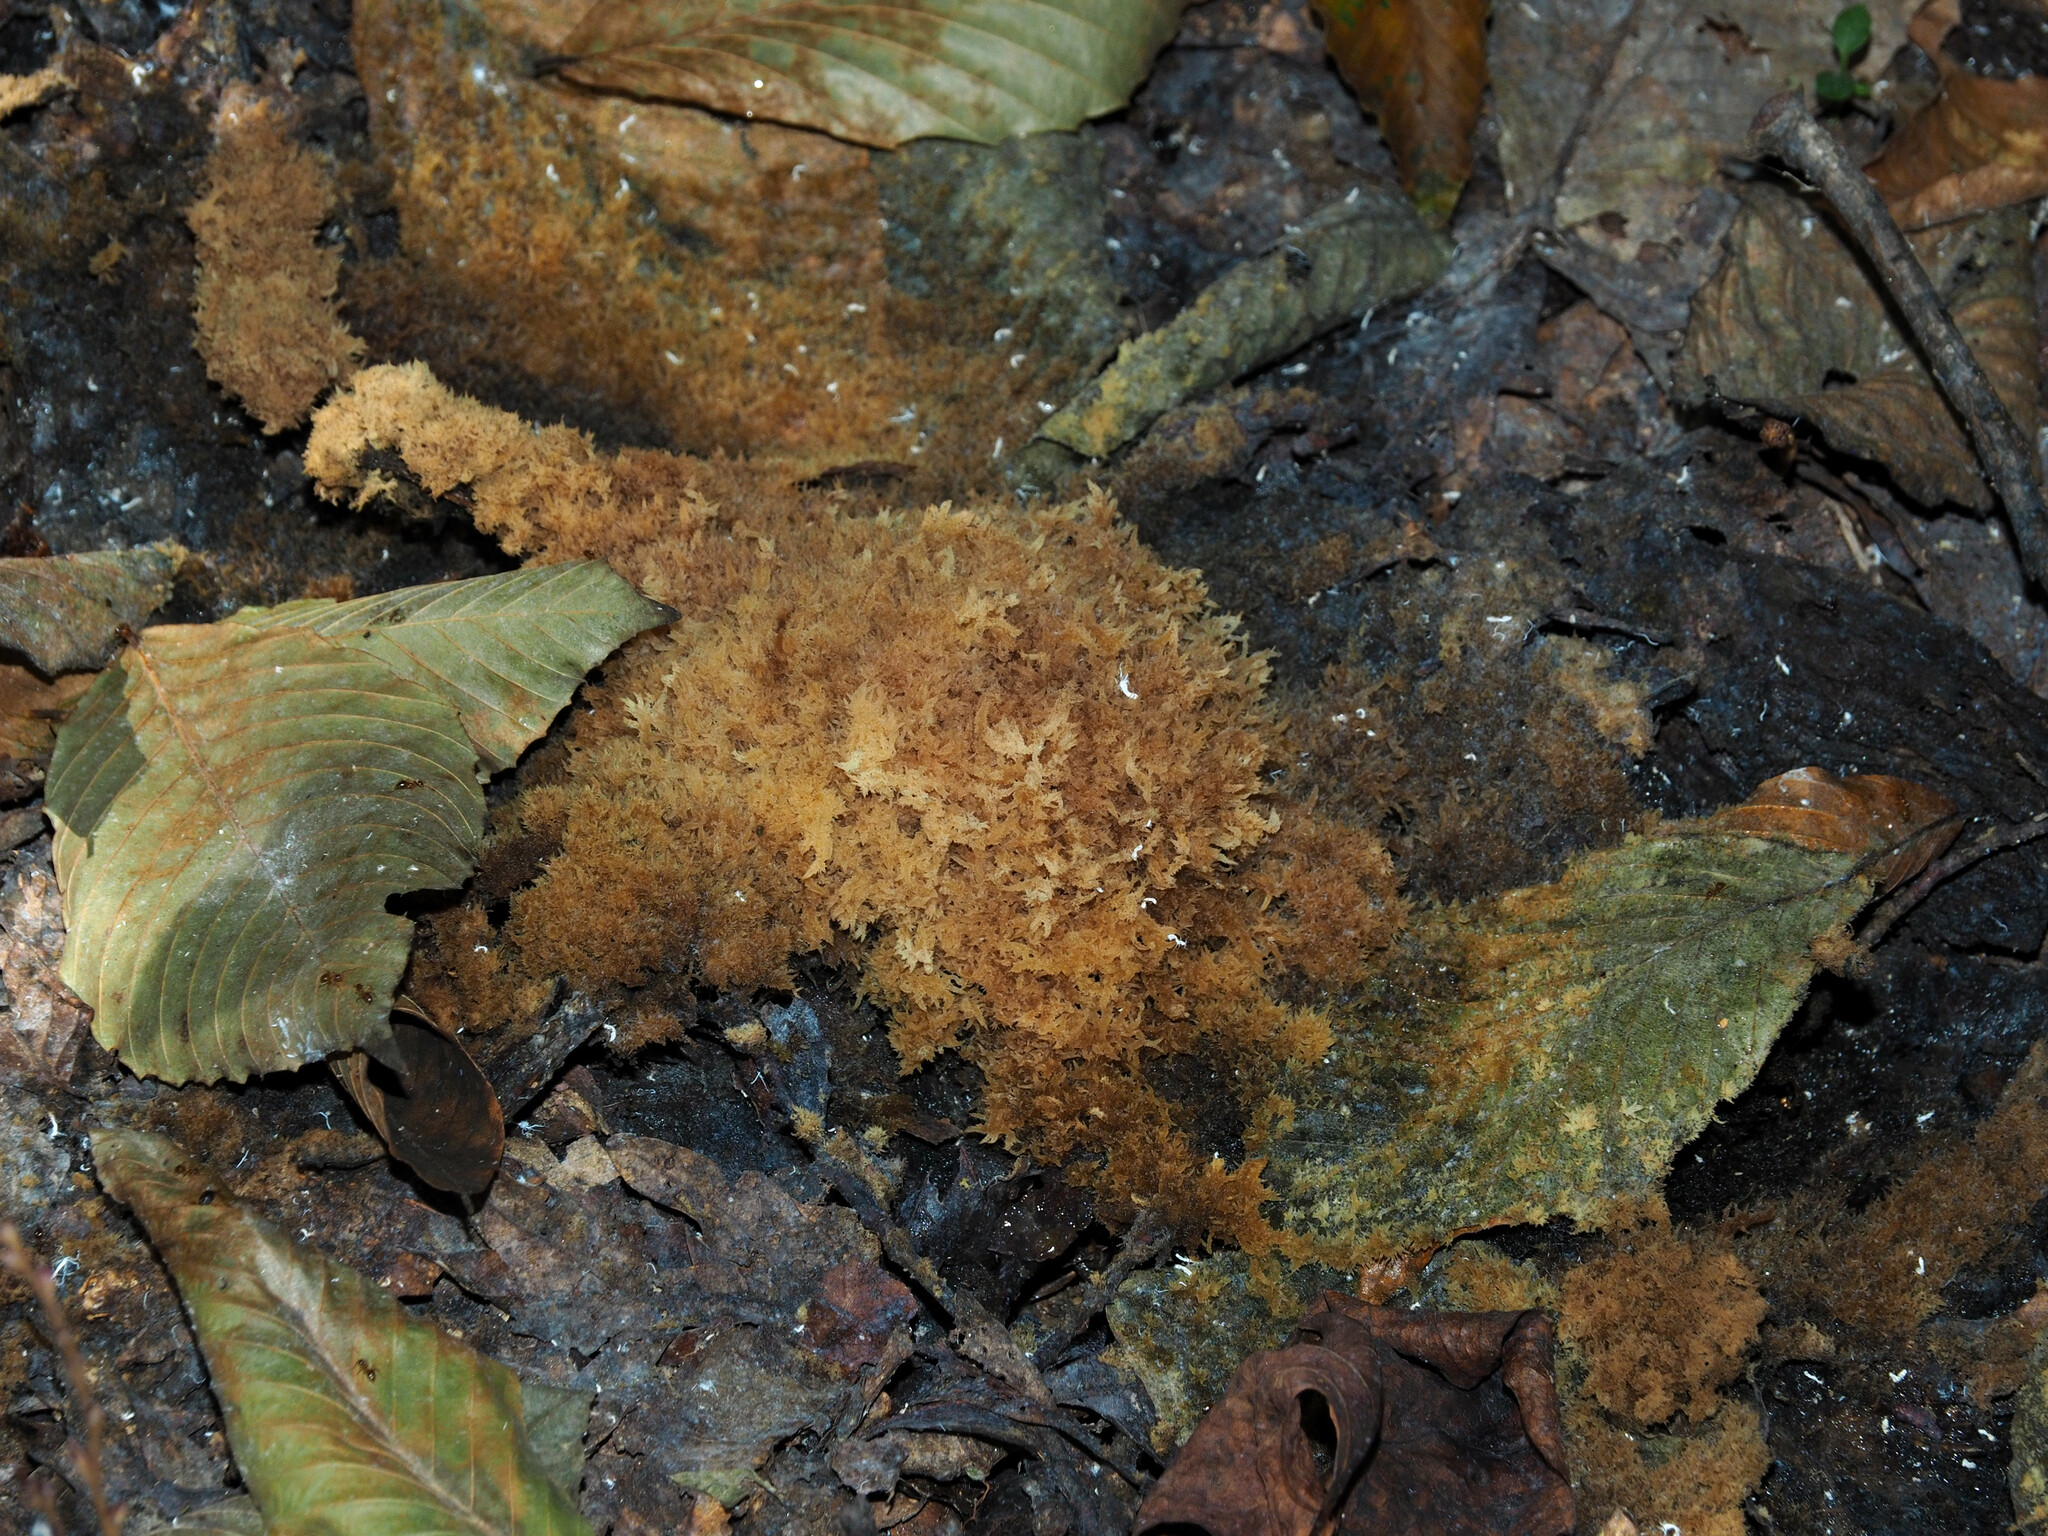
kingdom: Fungi
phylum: Ascomycota
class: Dothideomycetes
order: Capnodiales
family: Capnodiaceae
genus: Scorias
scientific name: Scorias spongiosa
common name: Black sooty mold
